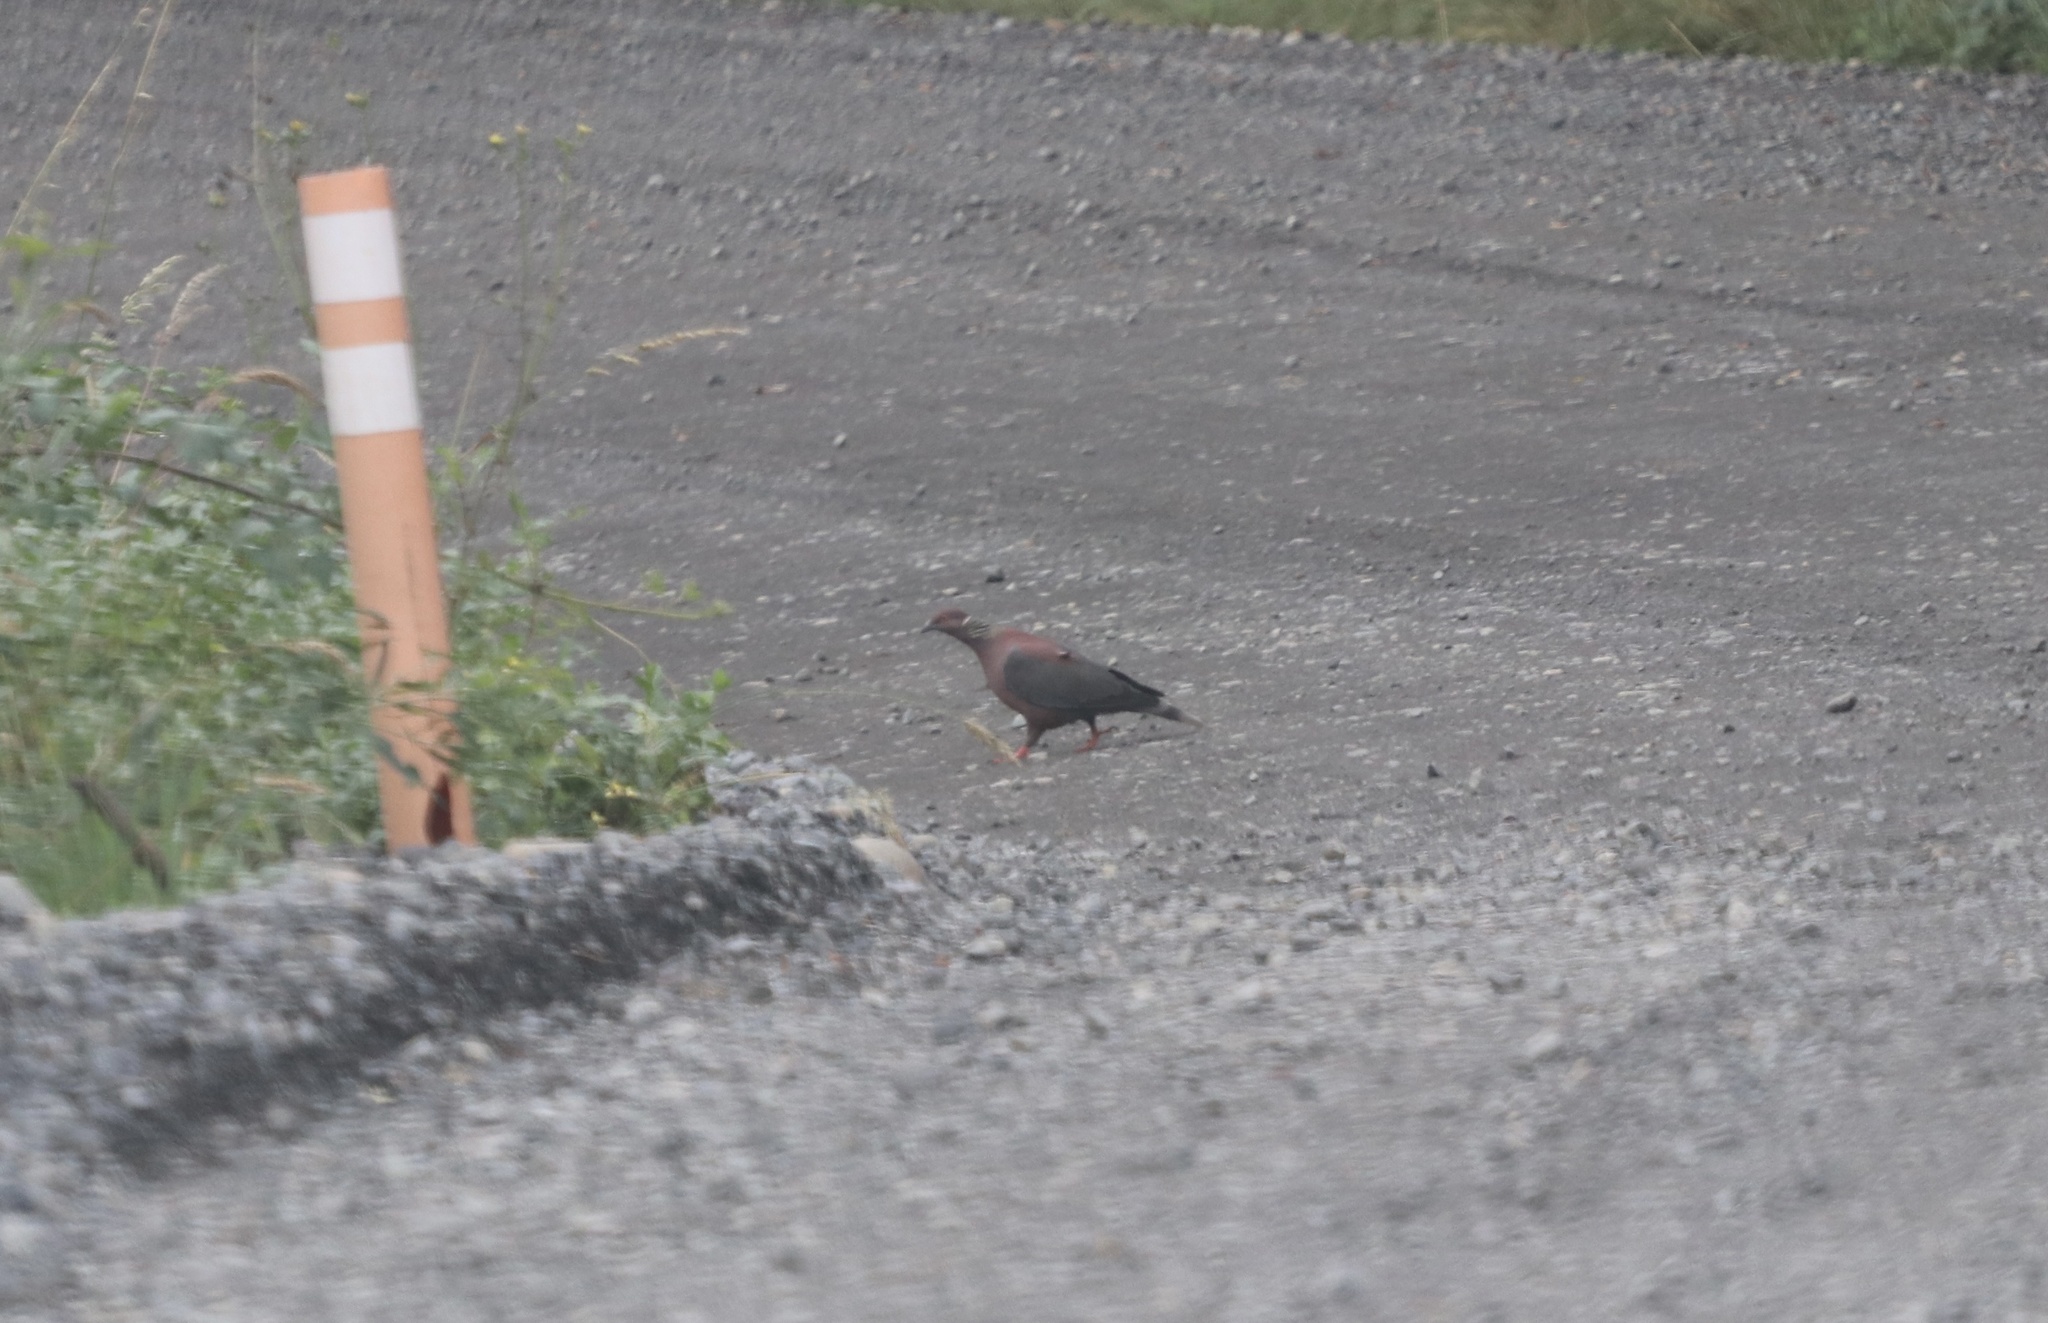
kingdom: Animalia
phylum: Chordata
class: Aves
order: Columbiformes
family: Columbidae
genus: Patagioenas
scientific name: Patagioenas araucana
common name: Chilean pigeon
